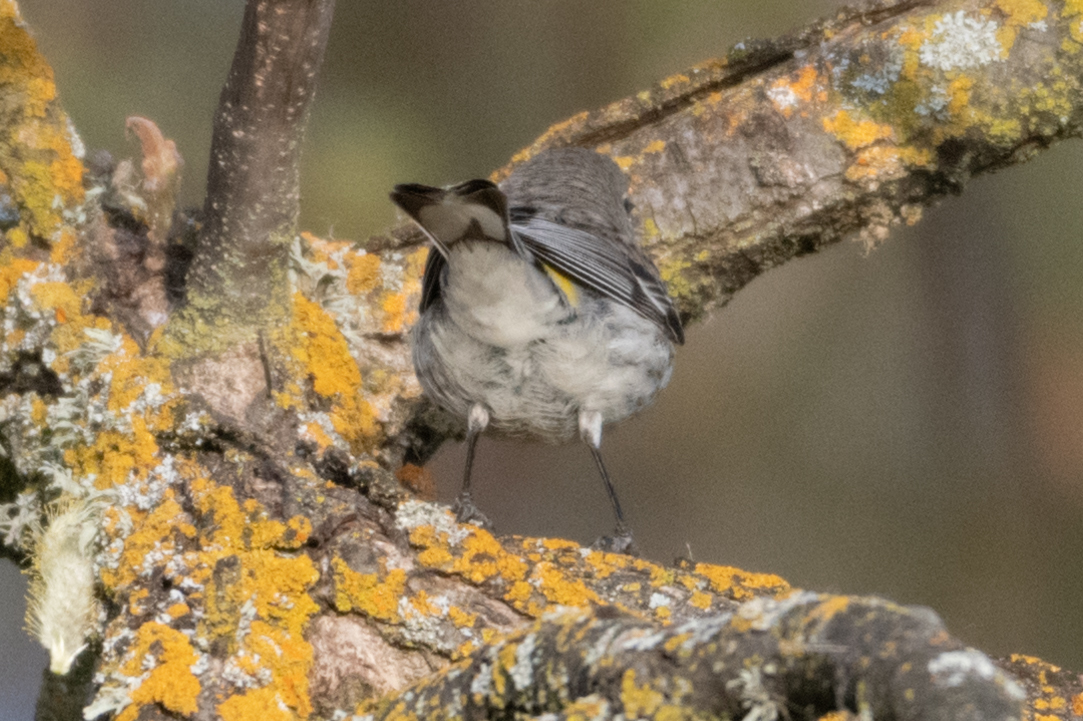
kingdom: Animalia
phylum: Chordata
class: Aves
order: Passeriformes
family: Parulidae
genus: Setophaga
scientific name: Setophaga coronata
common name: Myrtle warbler
